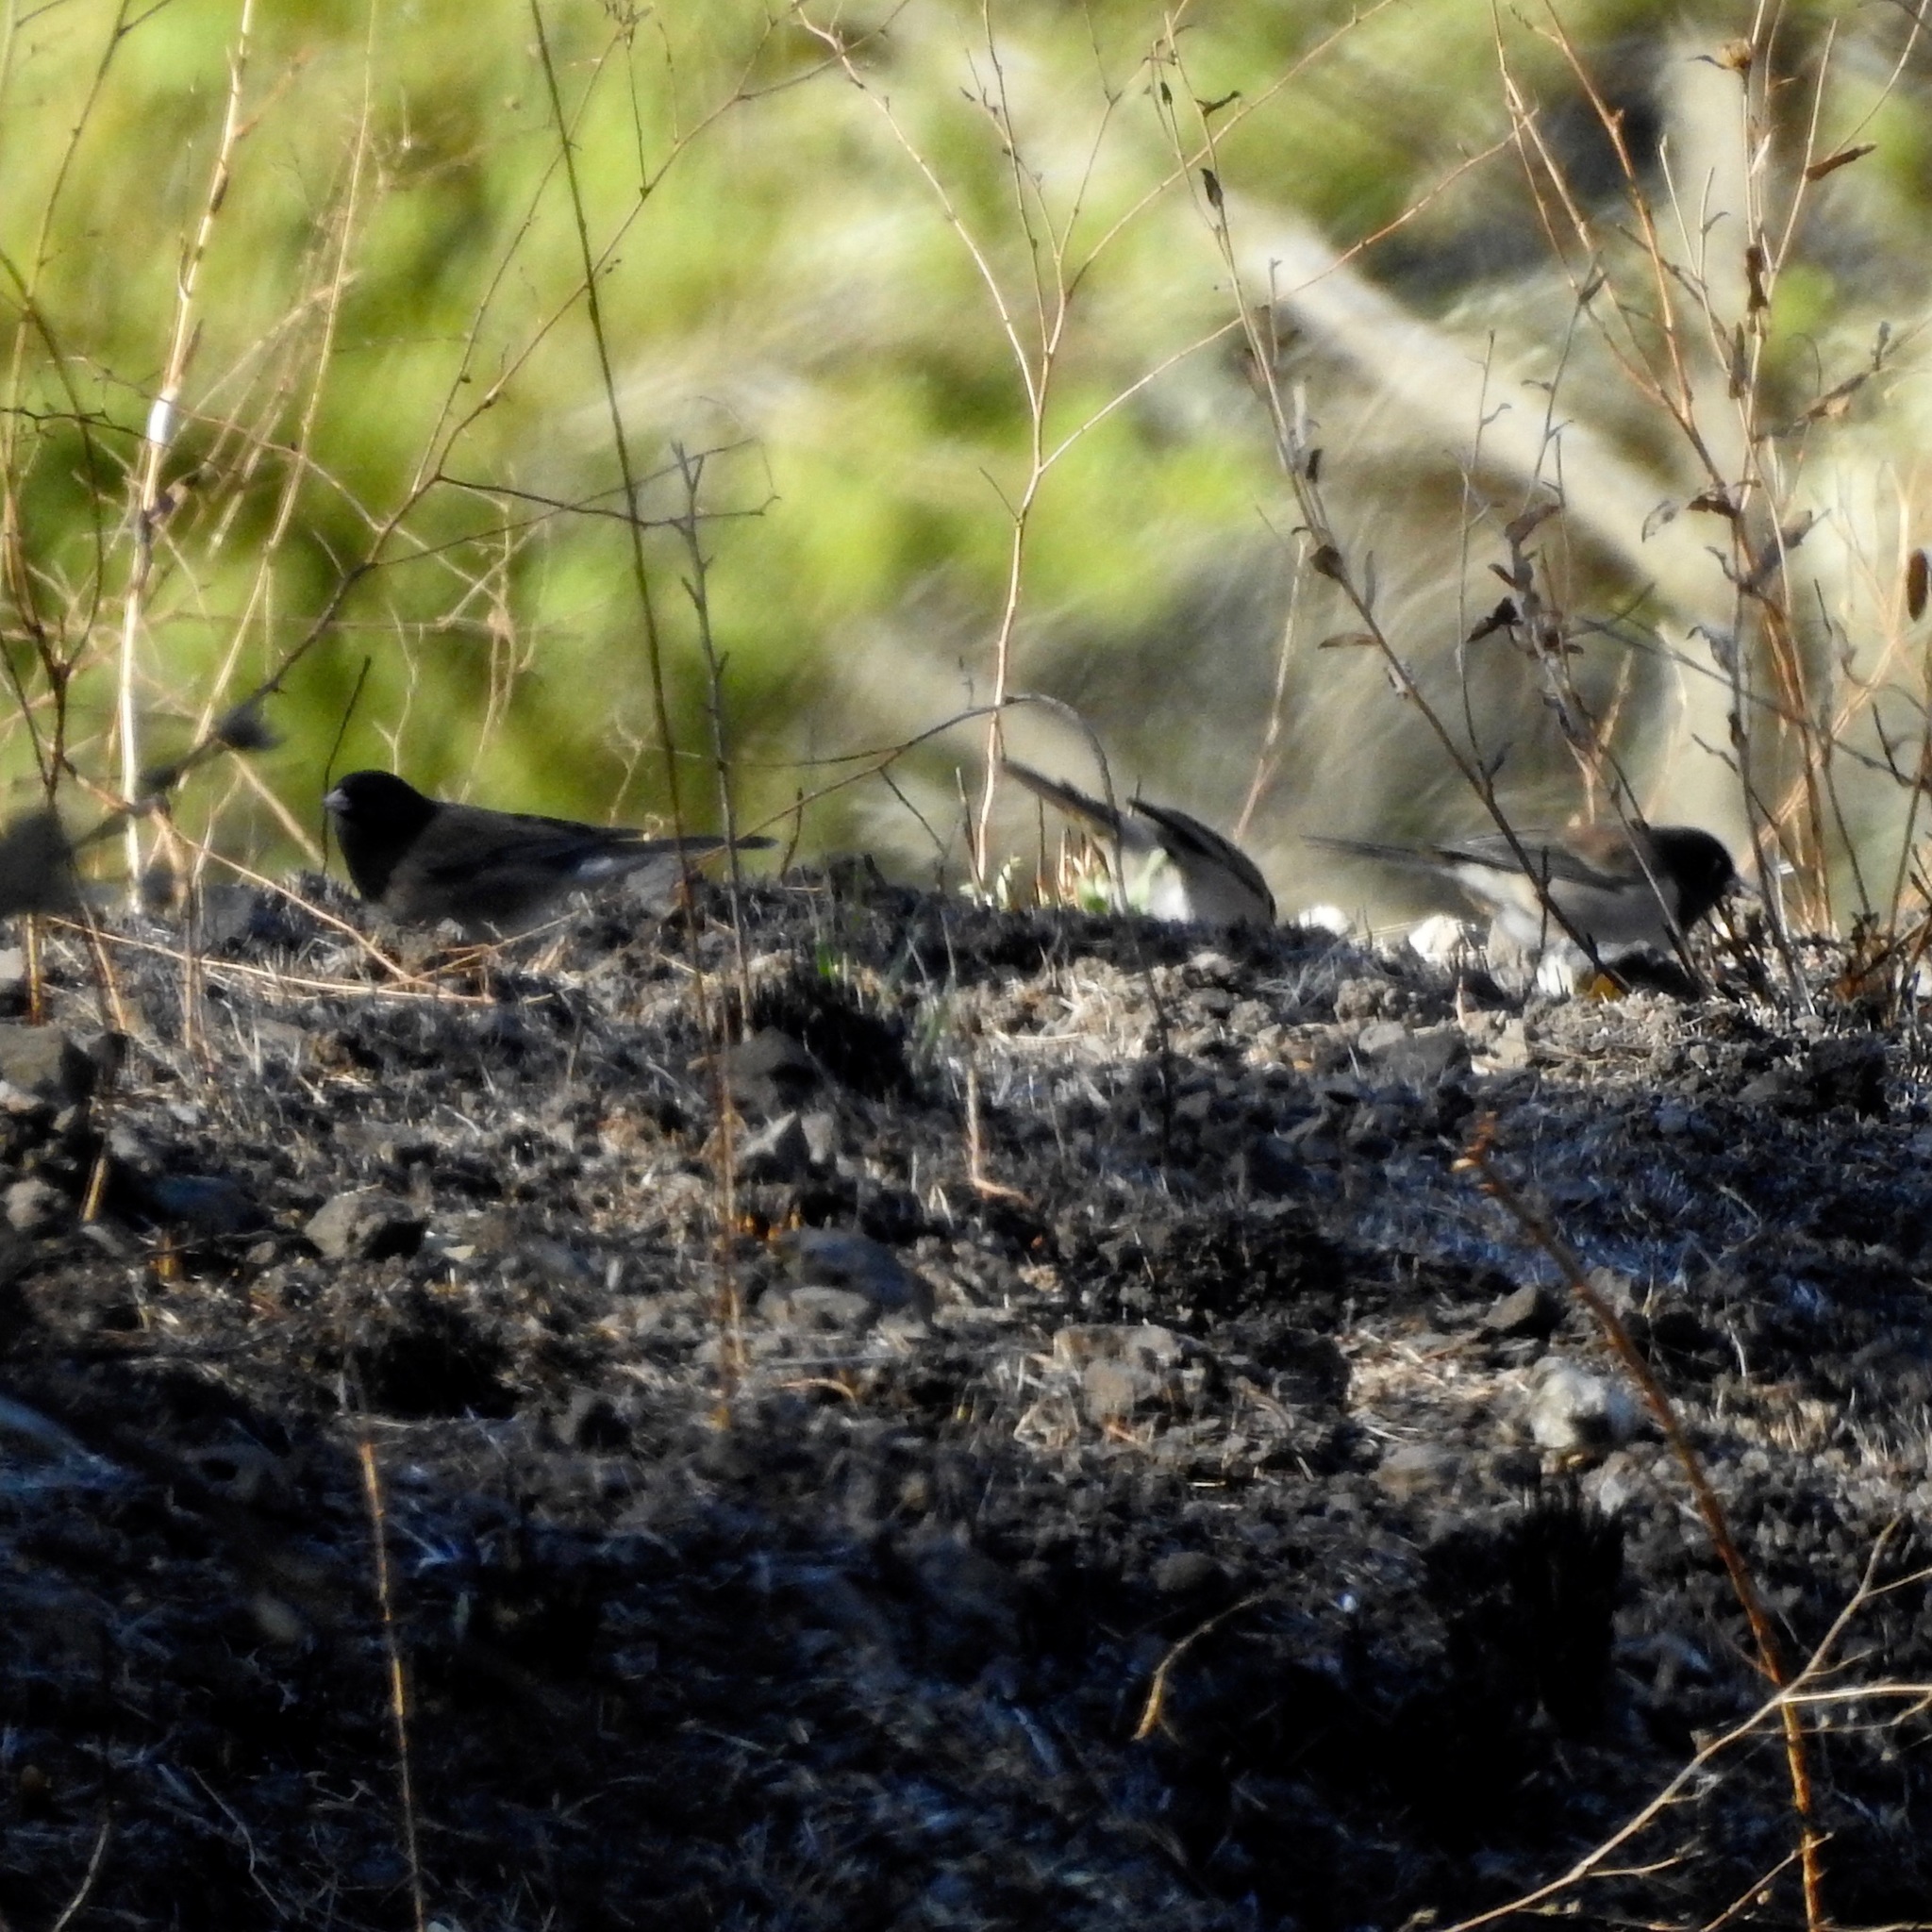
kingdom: Animalia
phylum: Chordata
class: Aves
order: Passeriformes
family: Passerellidae
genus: Junco
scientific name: Junco hyemalis
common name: Dark-eyed junco
